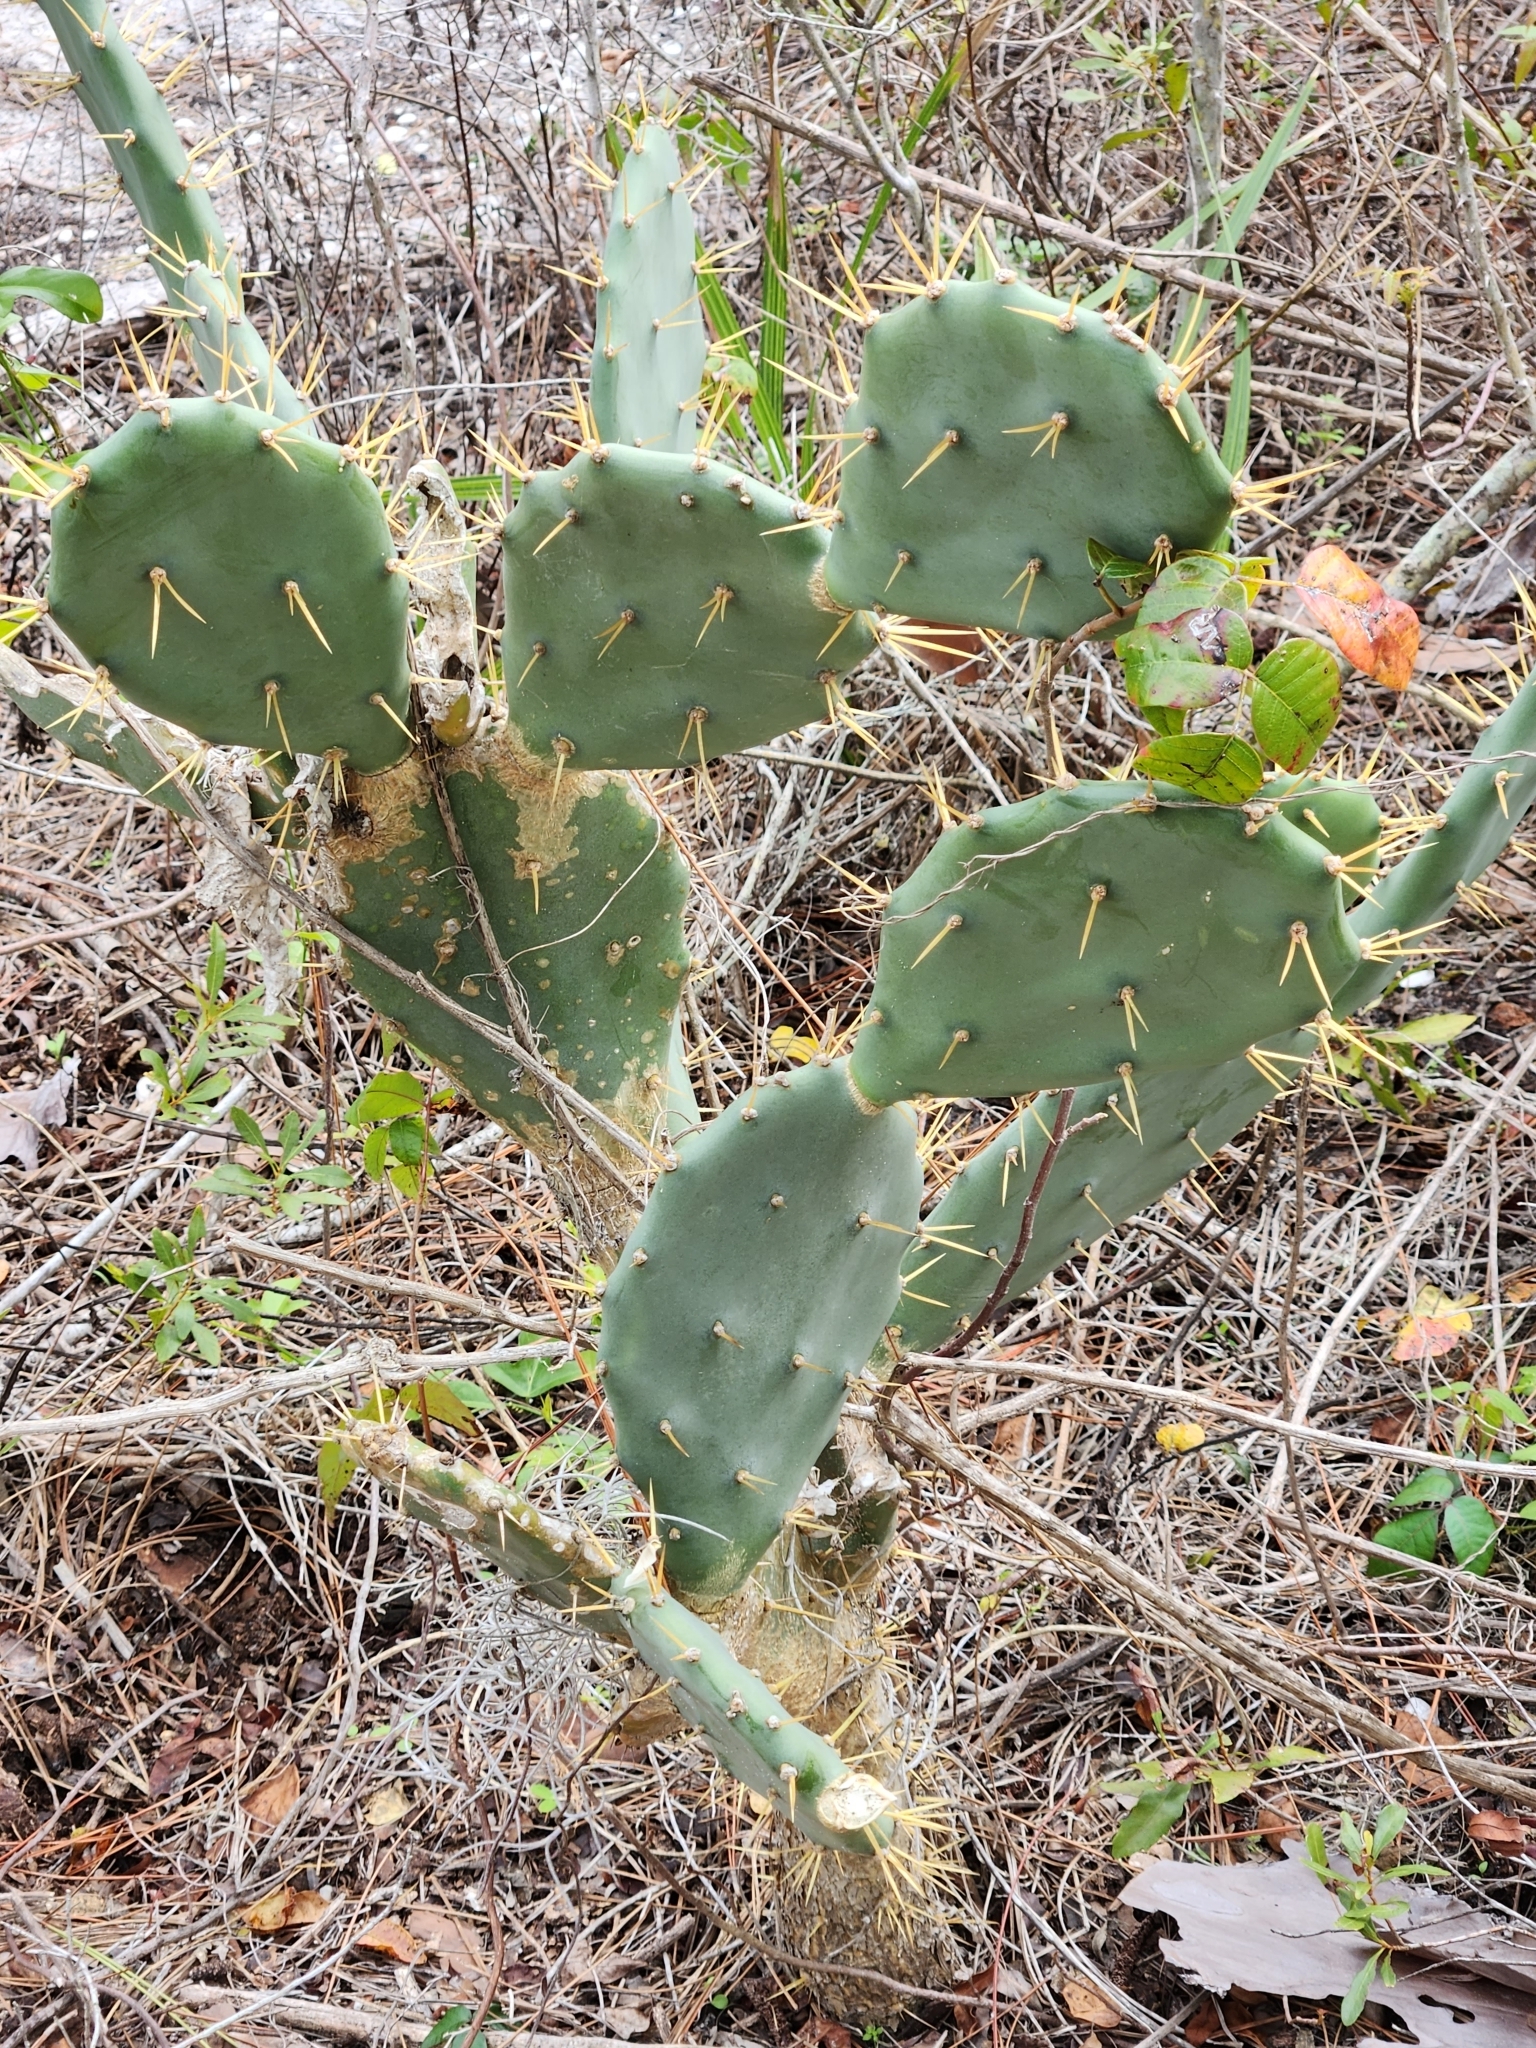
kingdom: Plantae
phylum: Tracheophyta
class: Magnoliopsida
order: Caryophyllales
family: Cactaceae
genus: Opuntia
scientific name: Opuntia stricta
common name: Erect pricklypear
